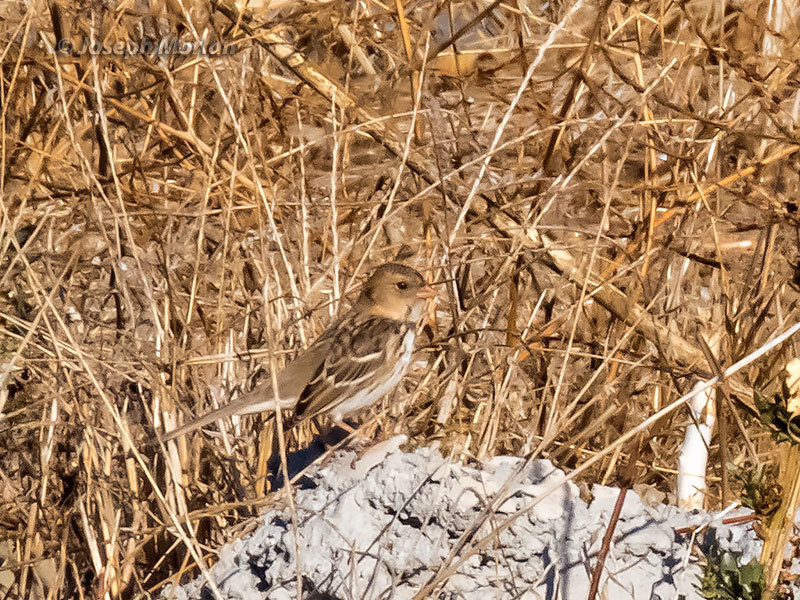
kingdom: Animalia
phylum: Chordata
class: Aves
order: Passeriformes
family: Passerellidae
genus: Zonotrichia
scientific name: Zonotrichia querula
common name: Harris's sparrow
